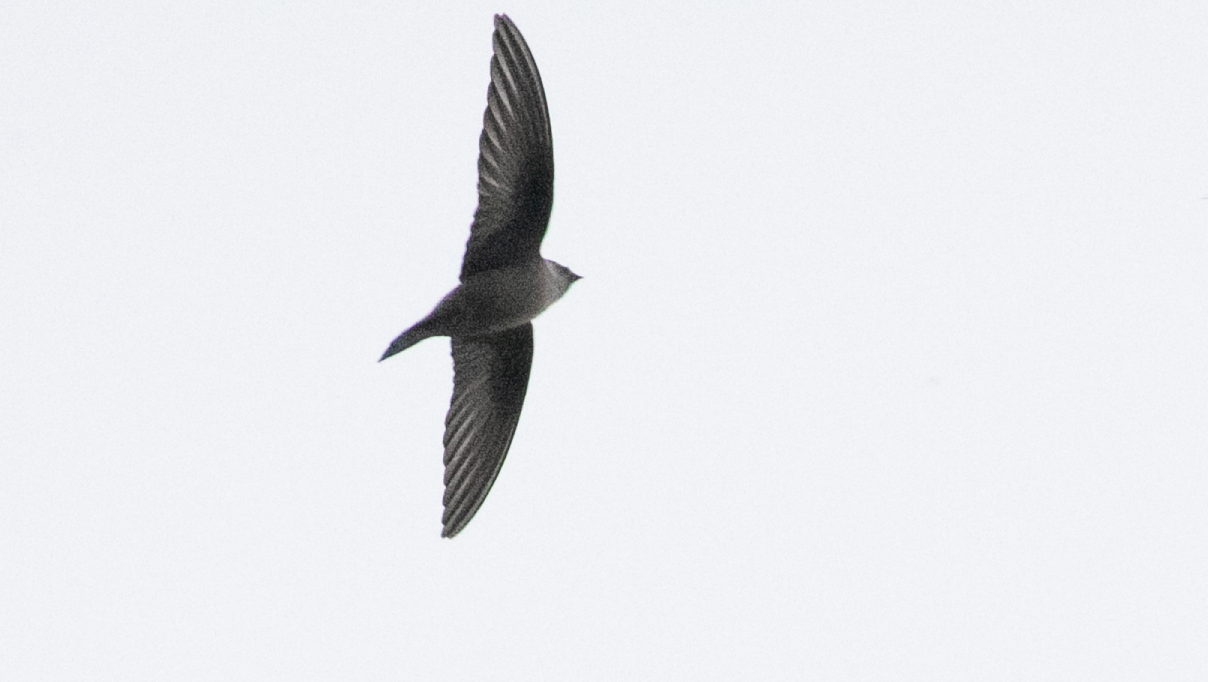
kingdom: Animalia
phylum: Chordata
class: Aves
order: Passeriformes
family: Hirundinidae
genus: Ptyonoprogne
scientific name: Ptyonoprogne rupestris
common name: Eurasian crag martin
